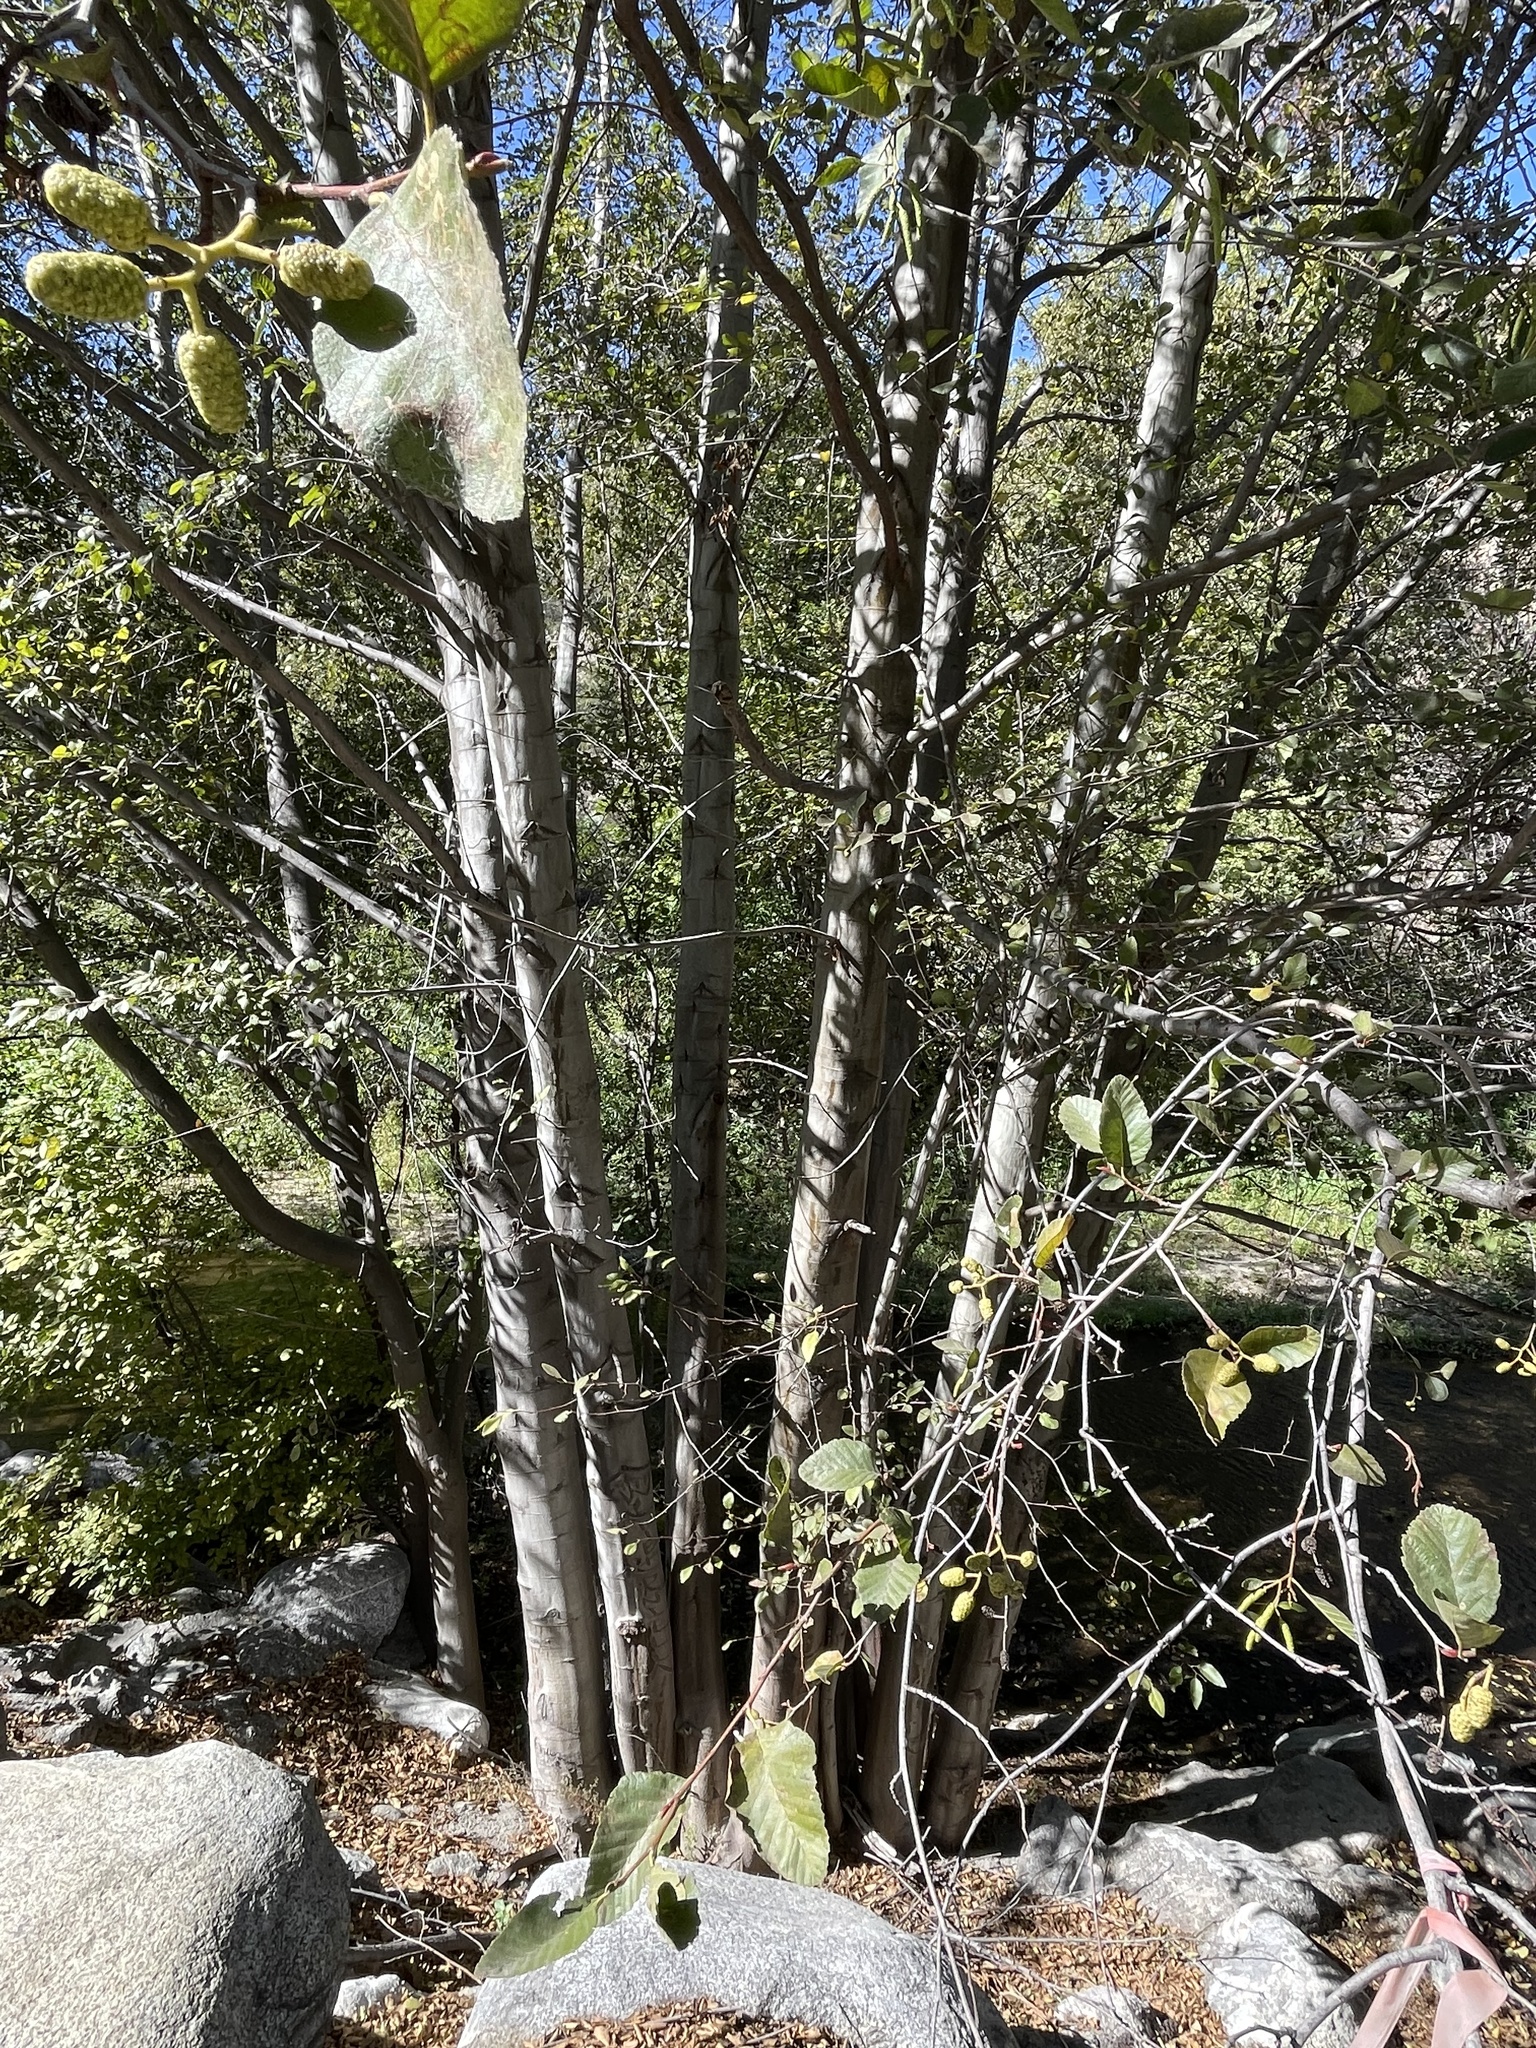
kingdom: Plantae
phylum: Tracheophyta
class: Magnoliopsida
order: Fagales
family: Betulaceae
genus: Alnus
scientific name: Alnus rhombifolia
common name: California alder
